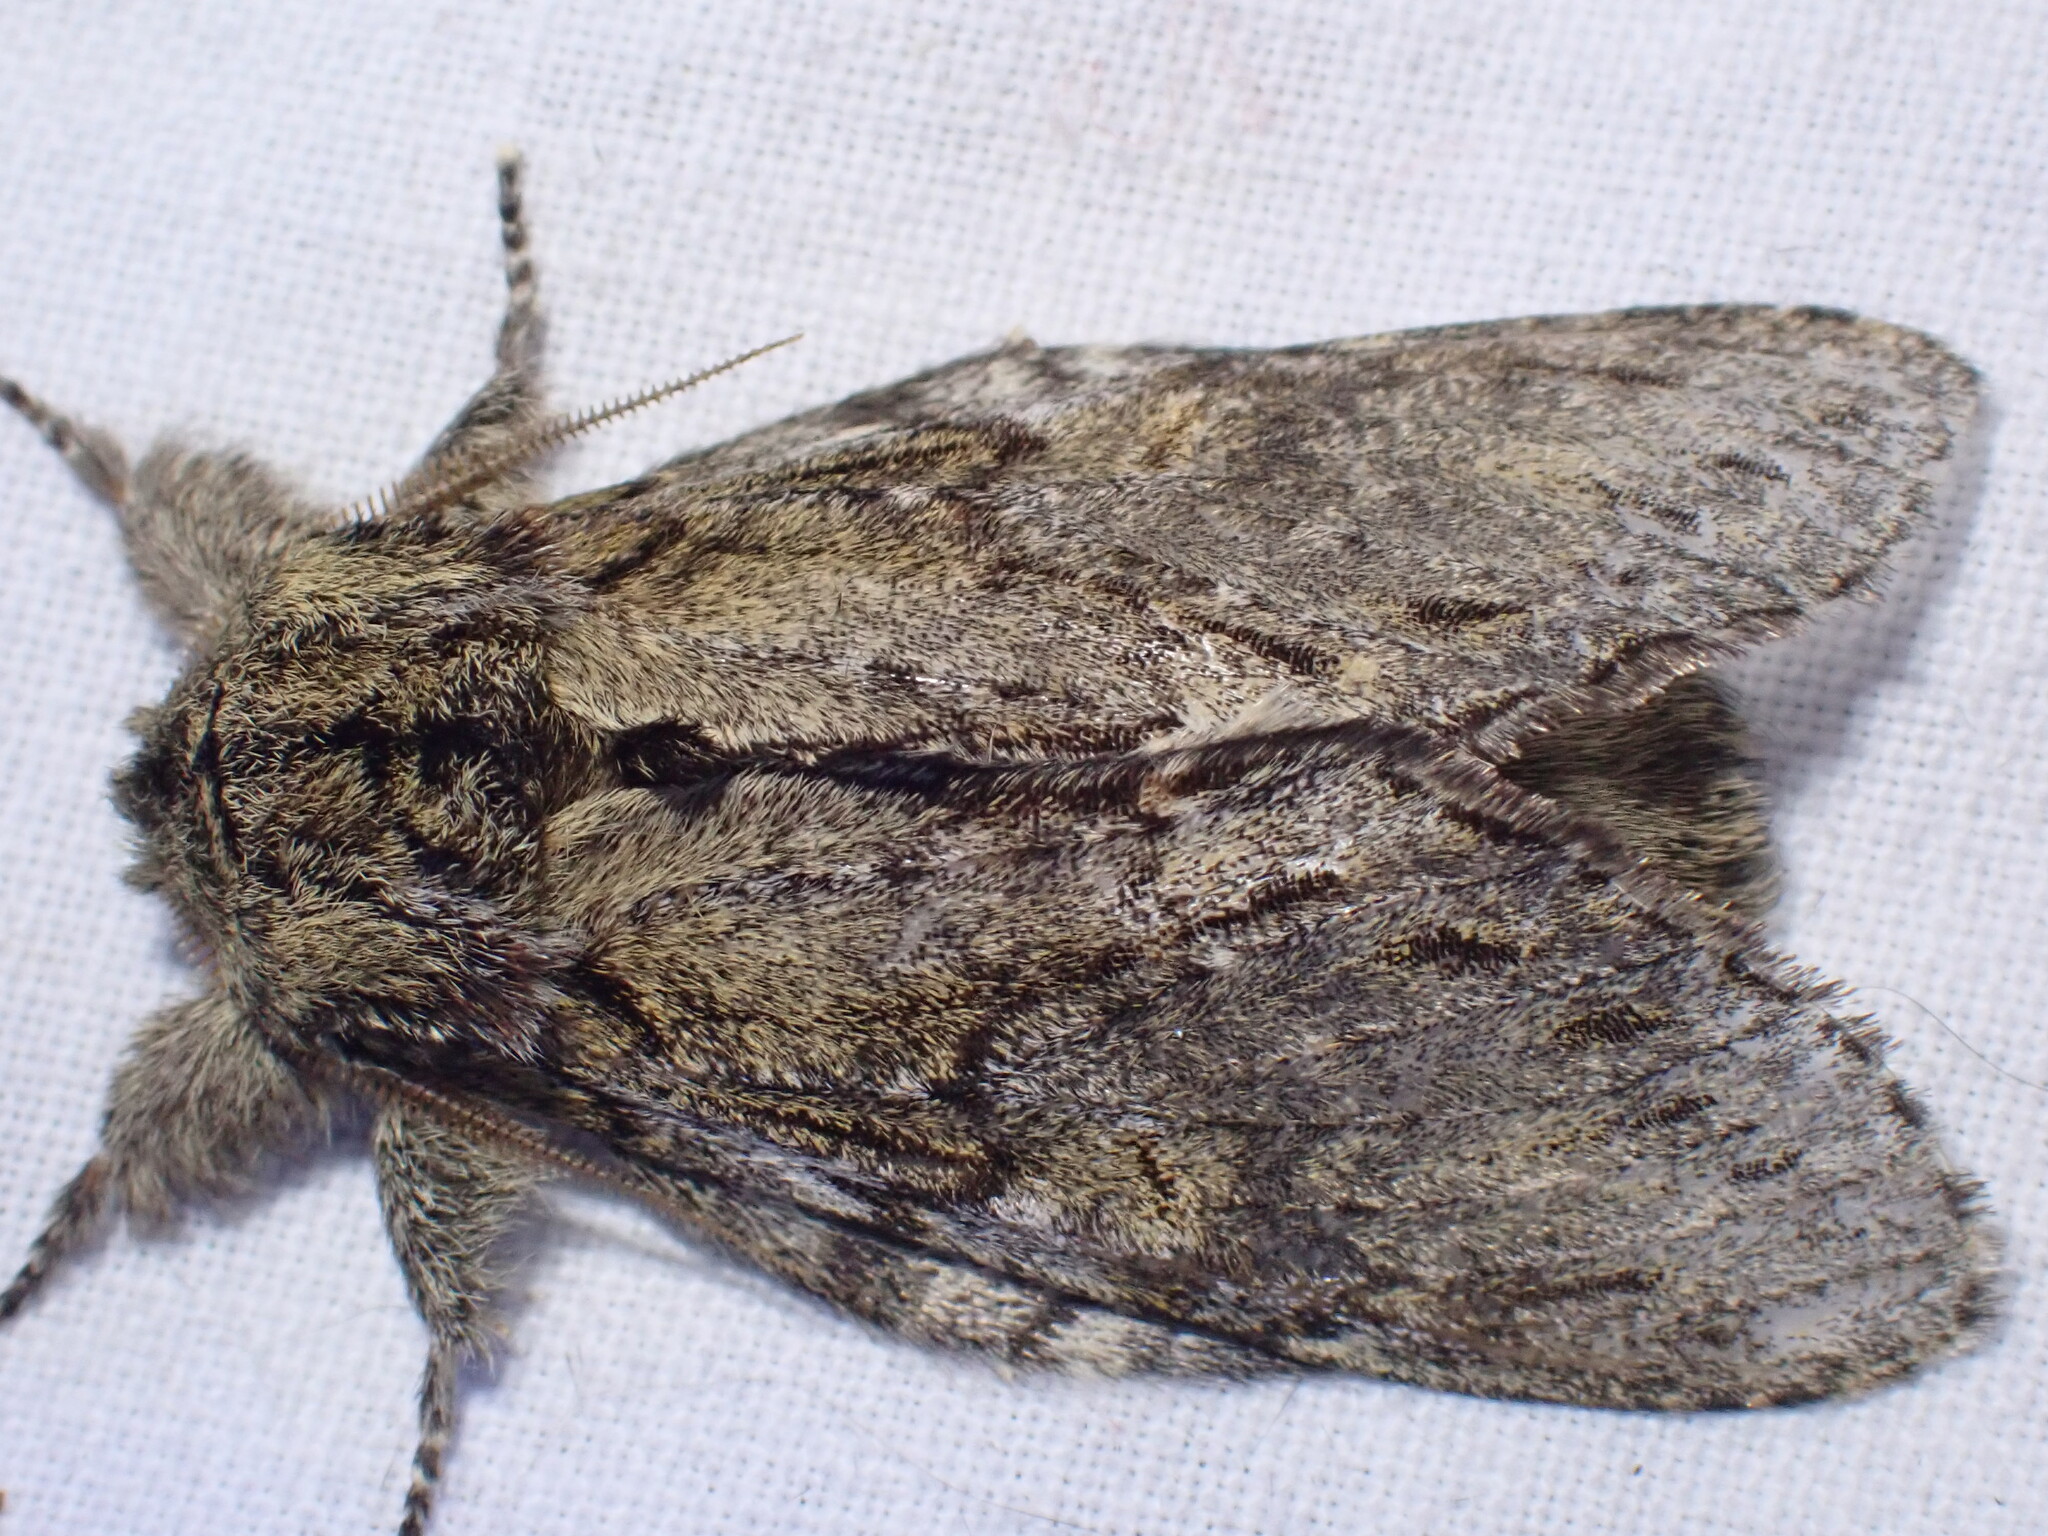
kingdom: Animalia
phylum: Arthropoda
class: Insecta
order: Lepidoptera
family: Notodontidae
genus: Peridea
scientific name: Peridea anceps
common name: Great prominent
